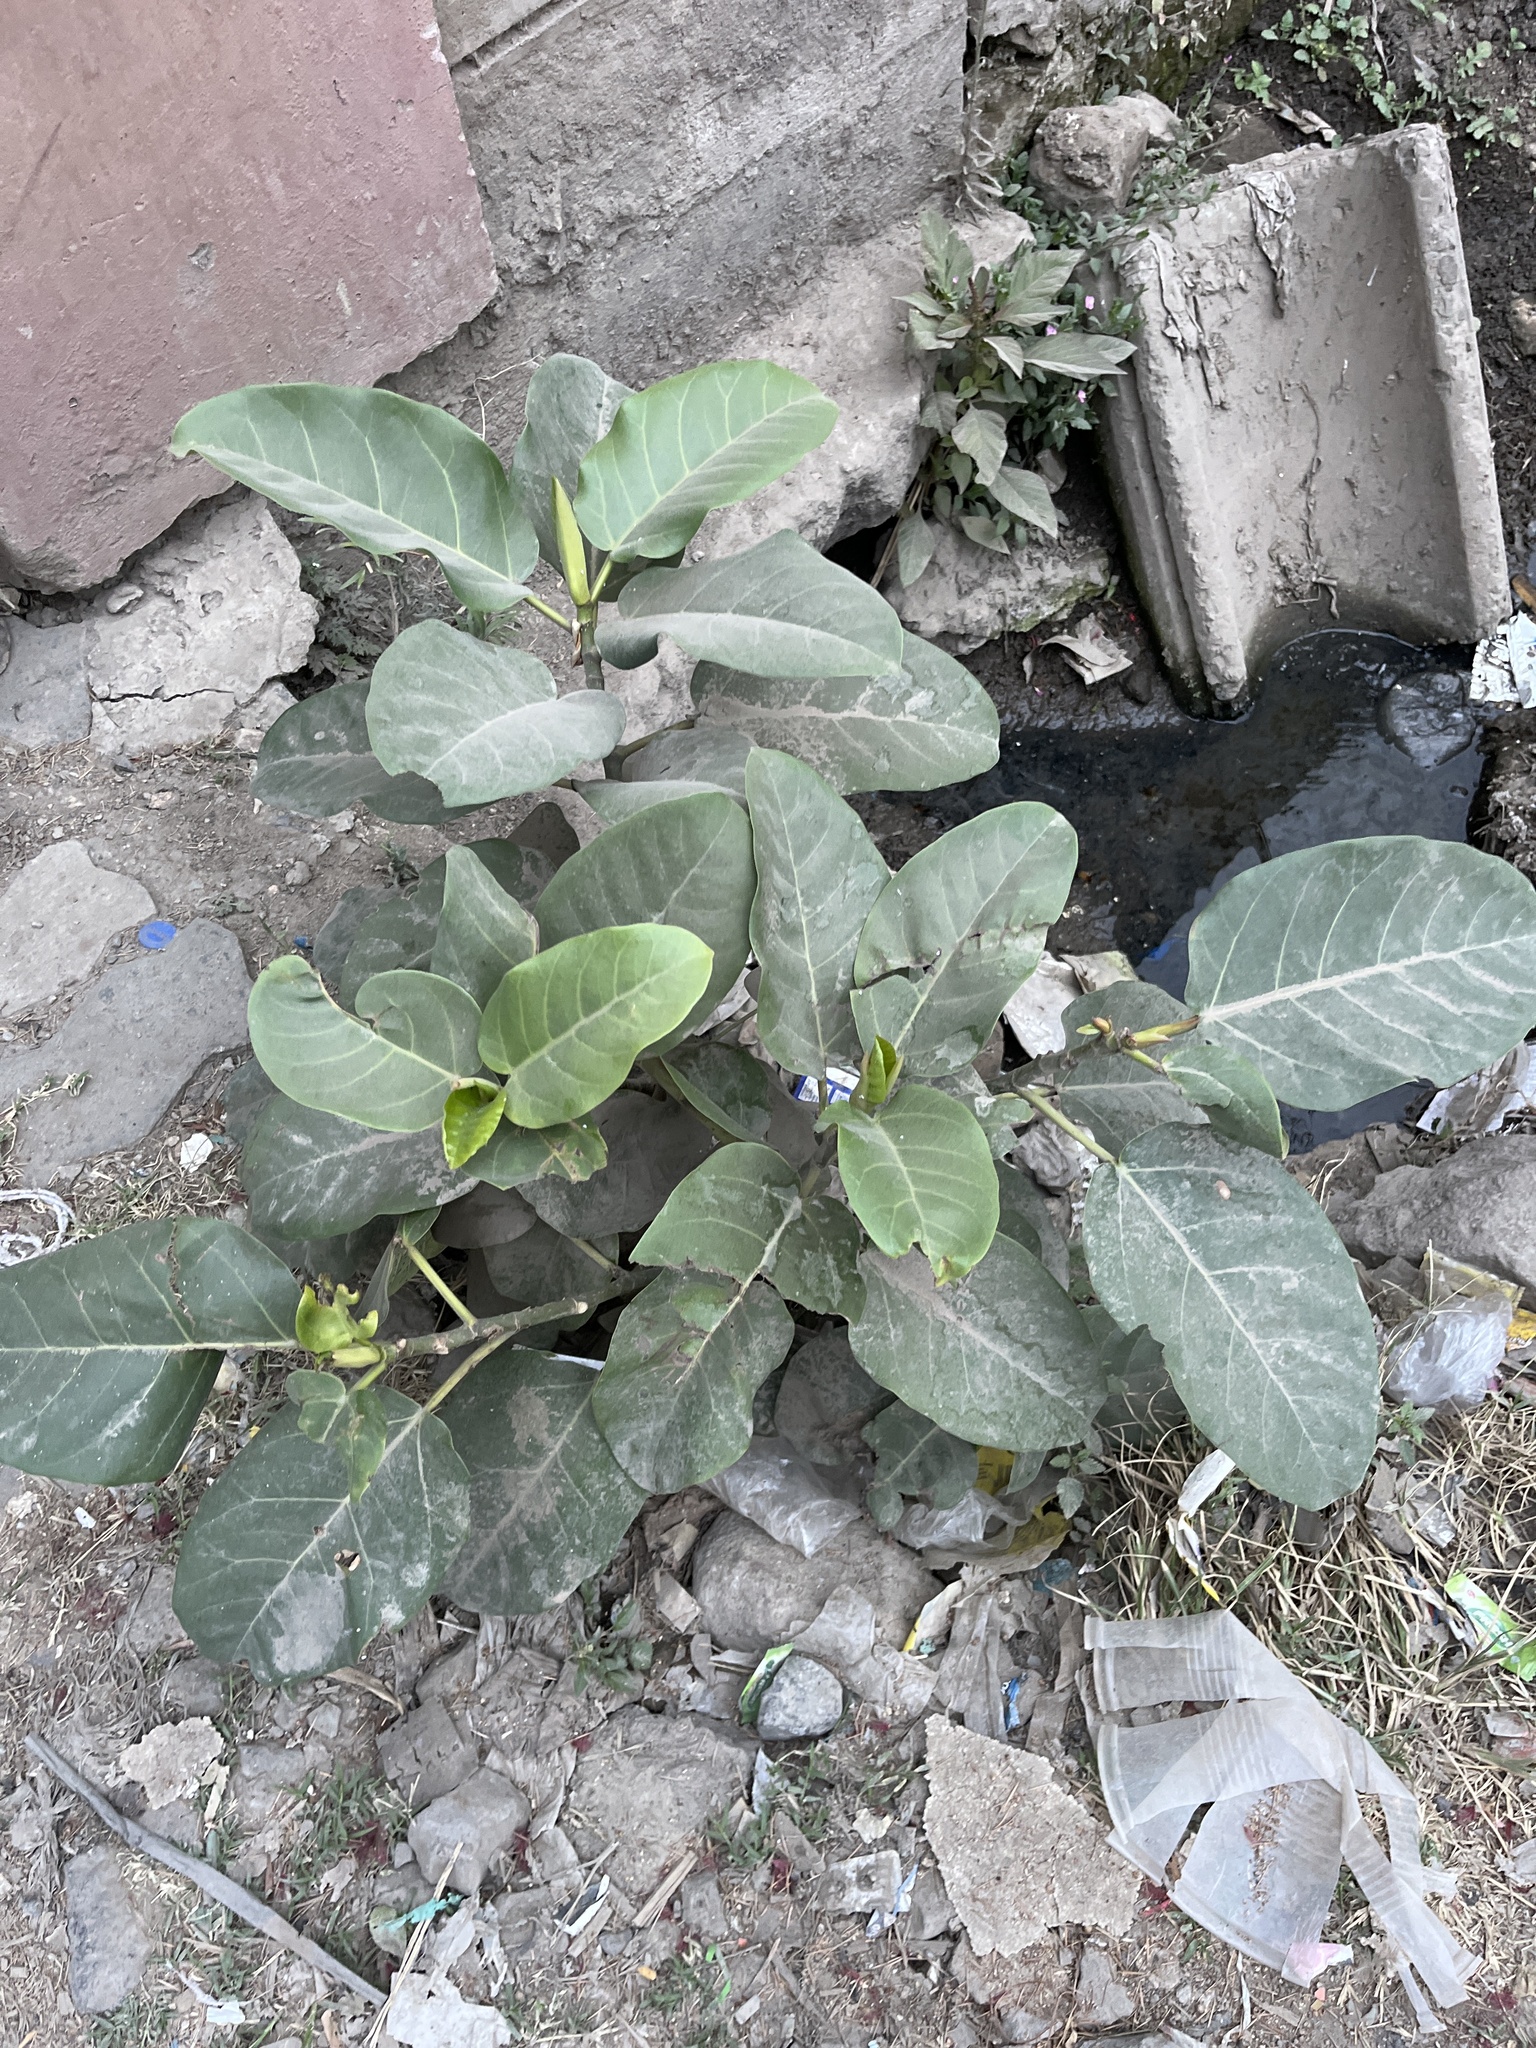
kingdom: Plantae
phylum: Tracheophyta
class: Magnoliopsida
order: Gentianales
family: Apocynaceae
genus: Calotropis
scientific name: Calotropis procera
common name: Roostertree
